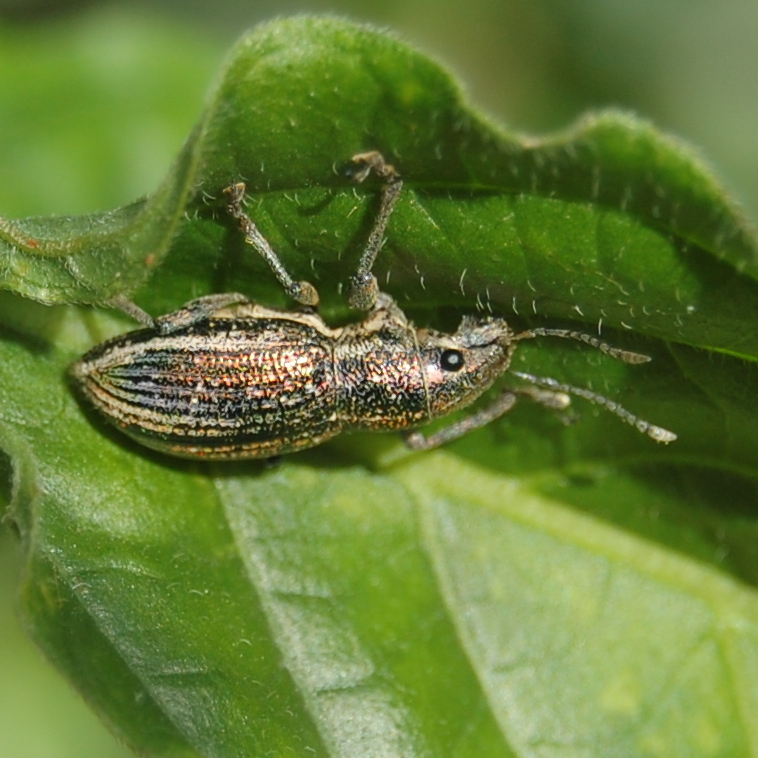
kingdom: Animalia
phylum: Arthropoda
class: Insecta
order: Coleoptera
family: Curculionidae
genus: Naupactus
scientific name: Naupactus tremolerasi
